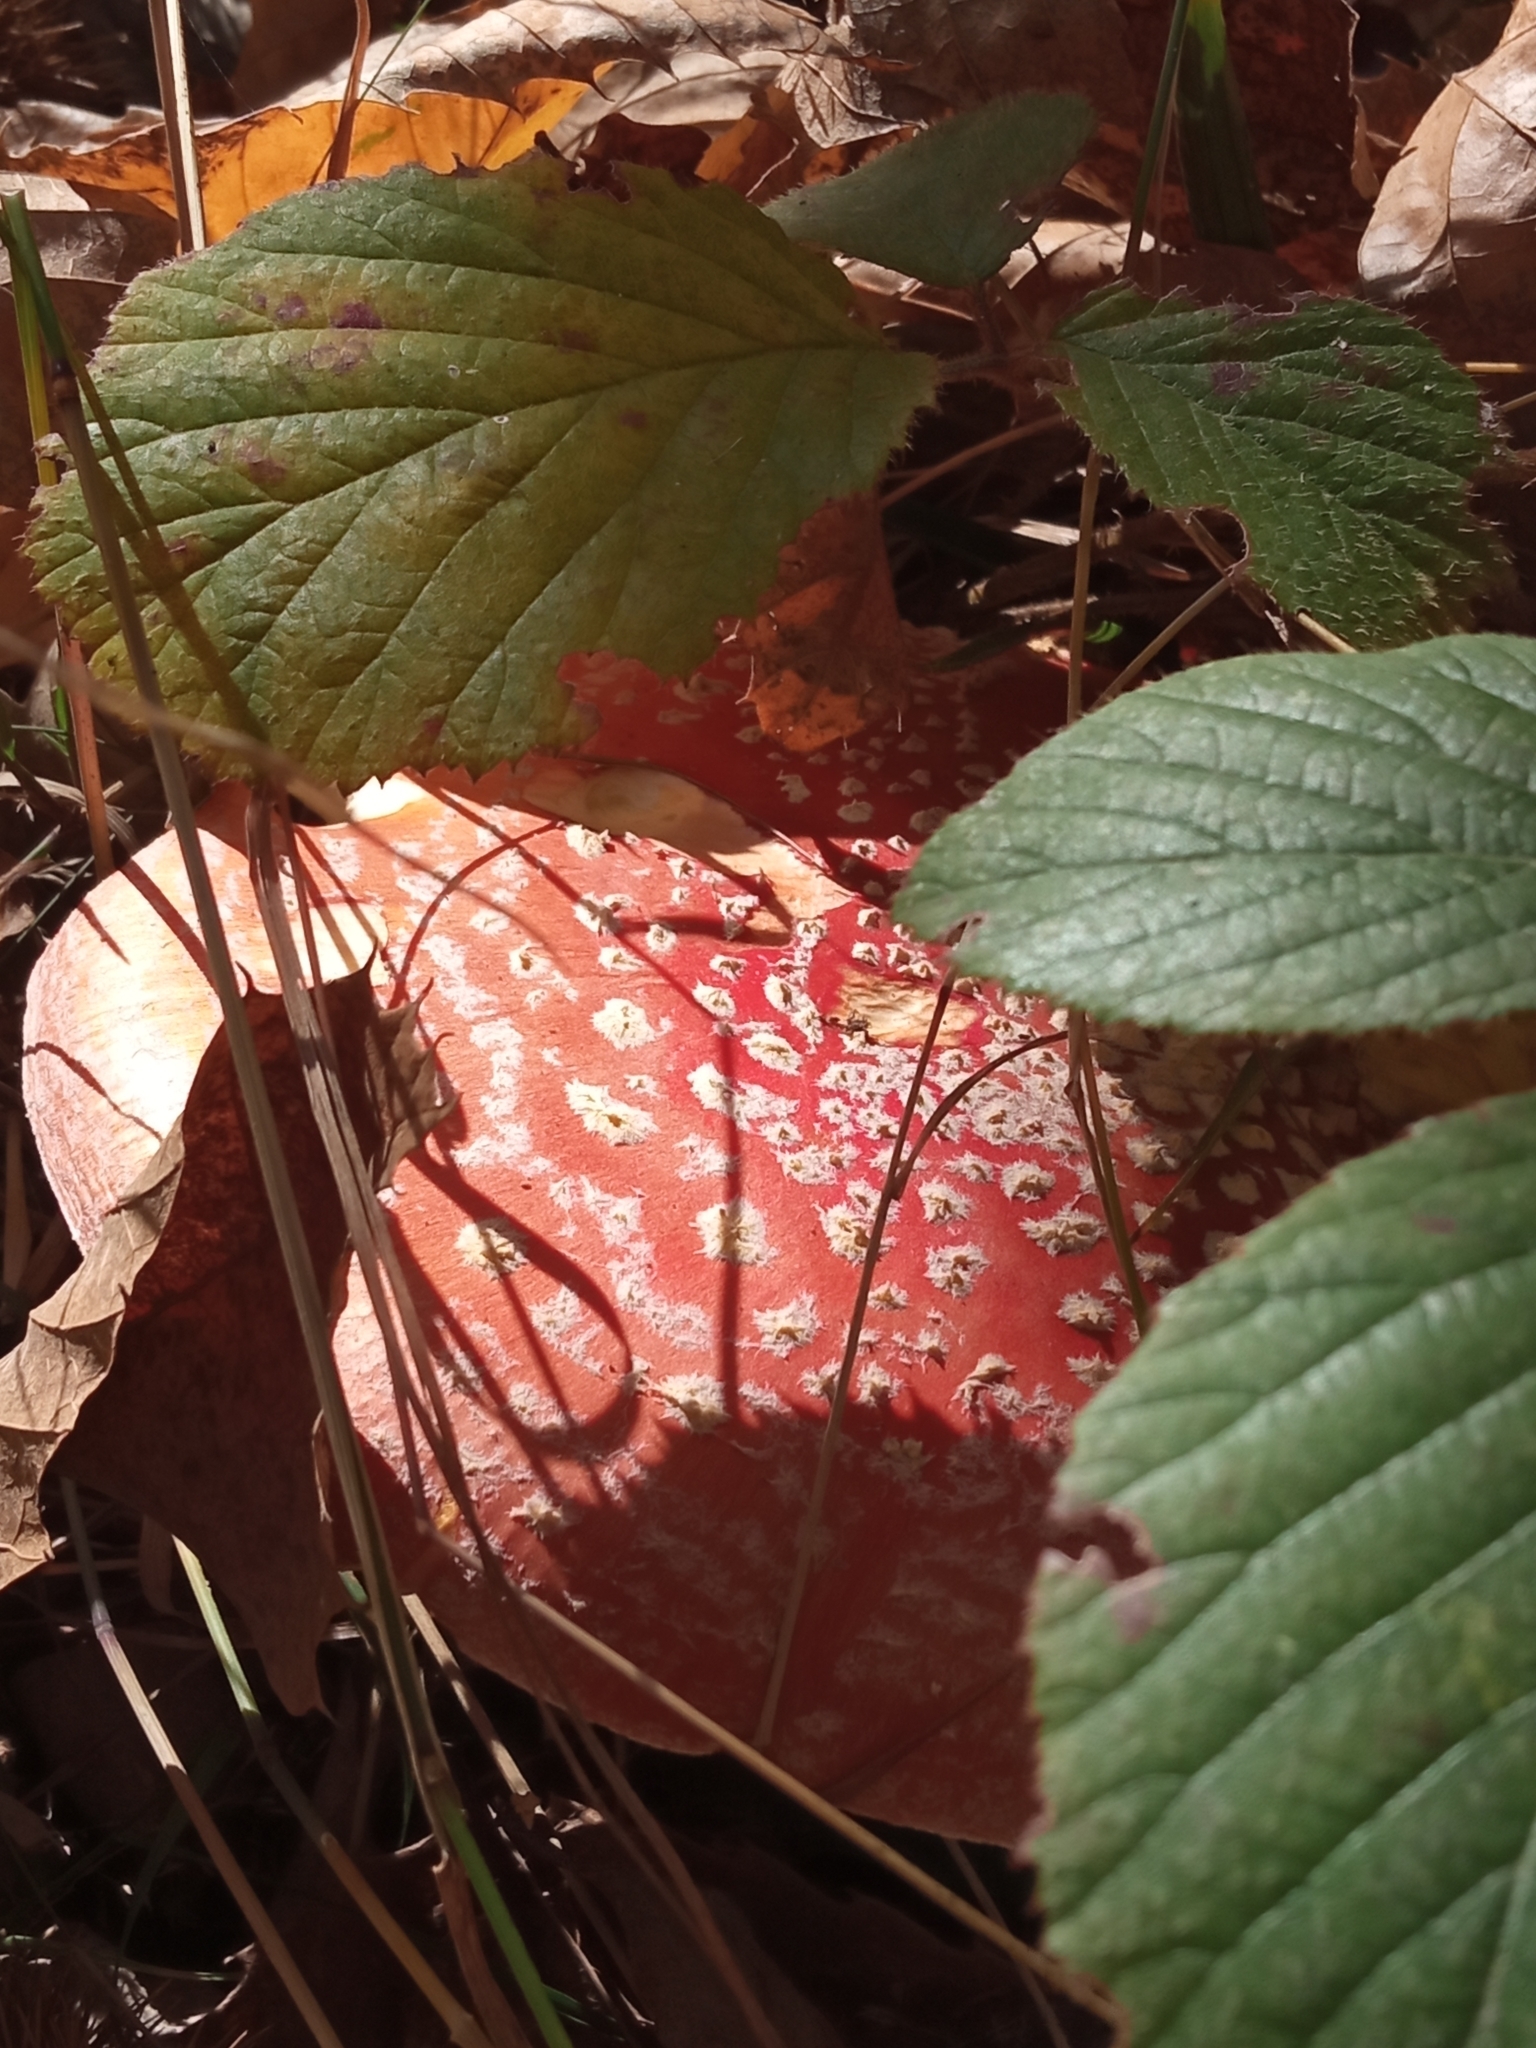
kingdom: Fungi
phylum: Basidiomycota
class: Agaricomycetes
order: Agaricales
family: Amanitaceae
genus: Amanita
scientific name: Amanita muscaria
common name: Fly agaric
